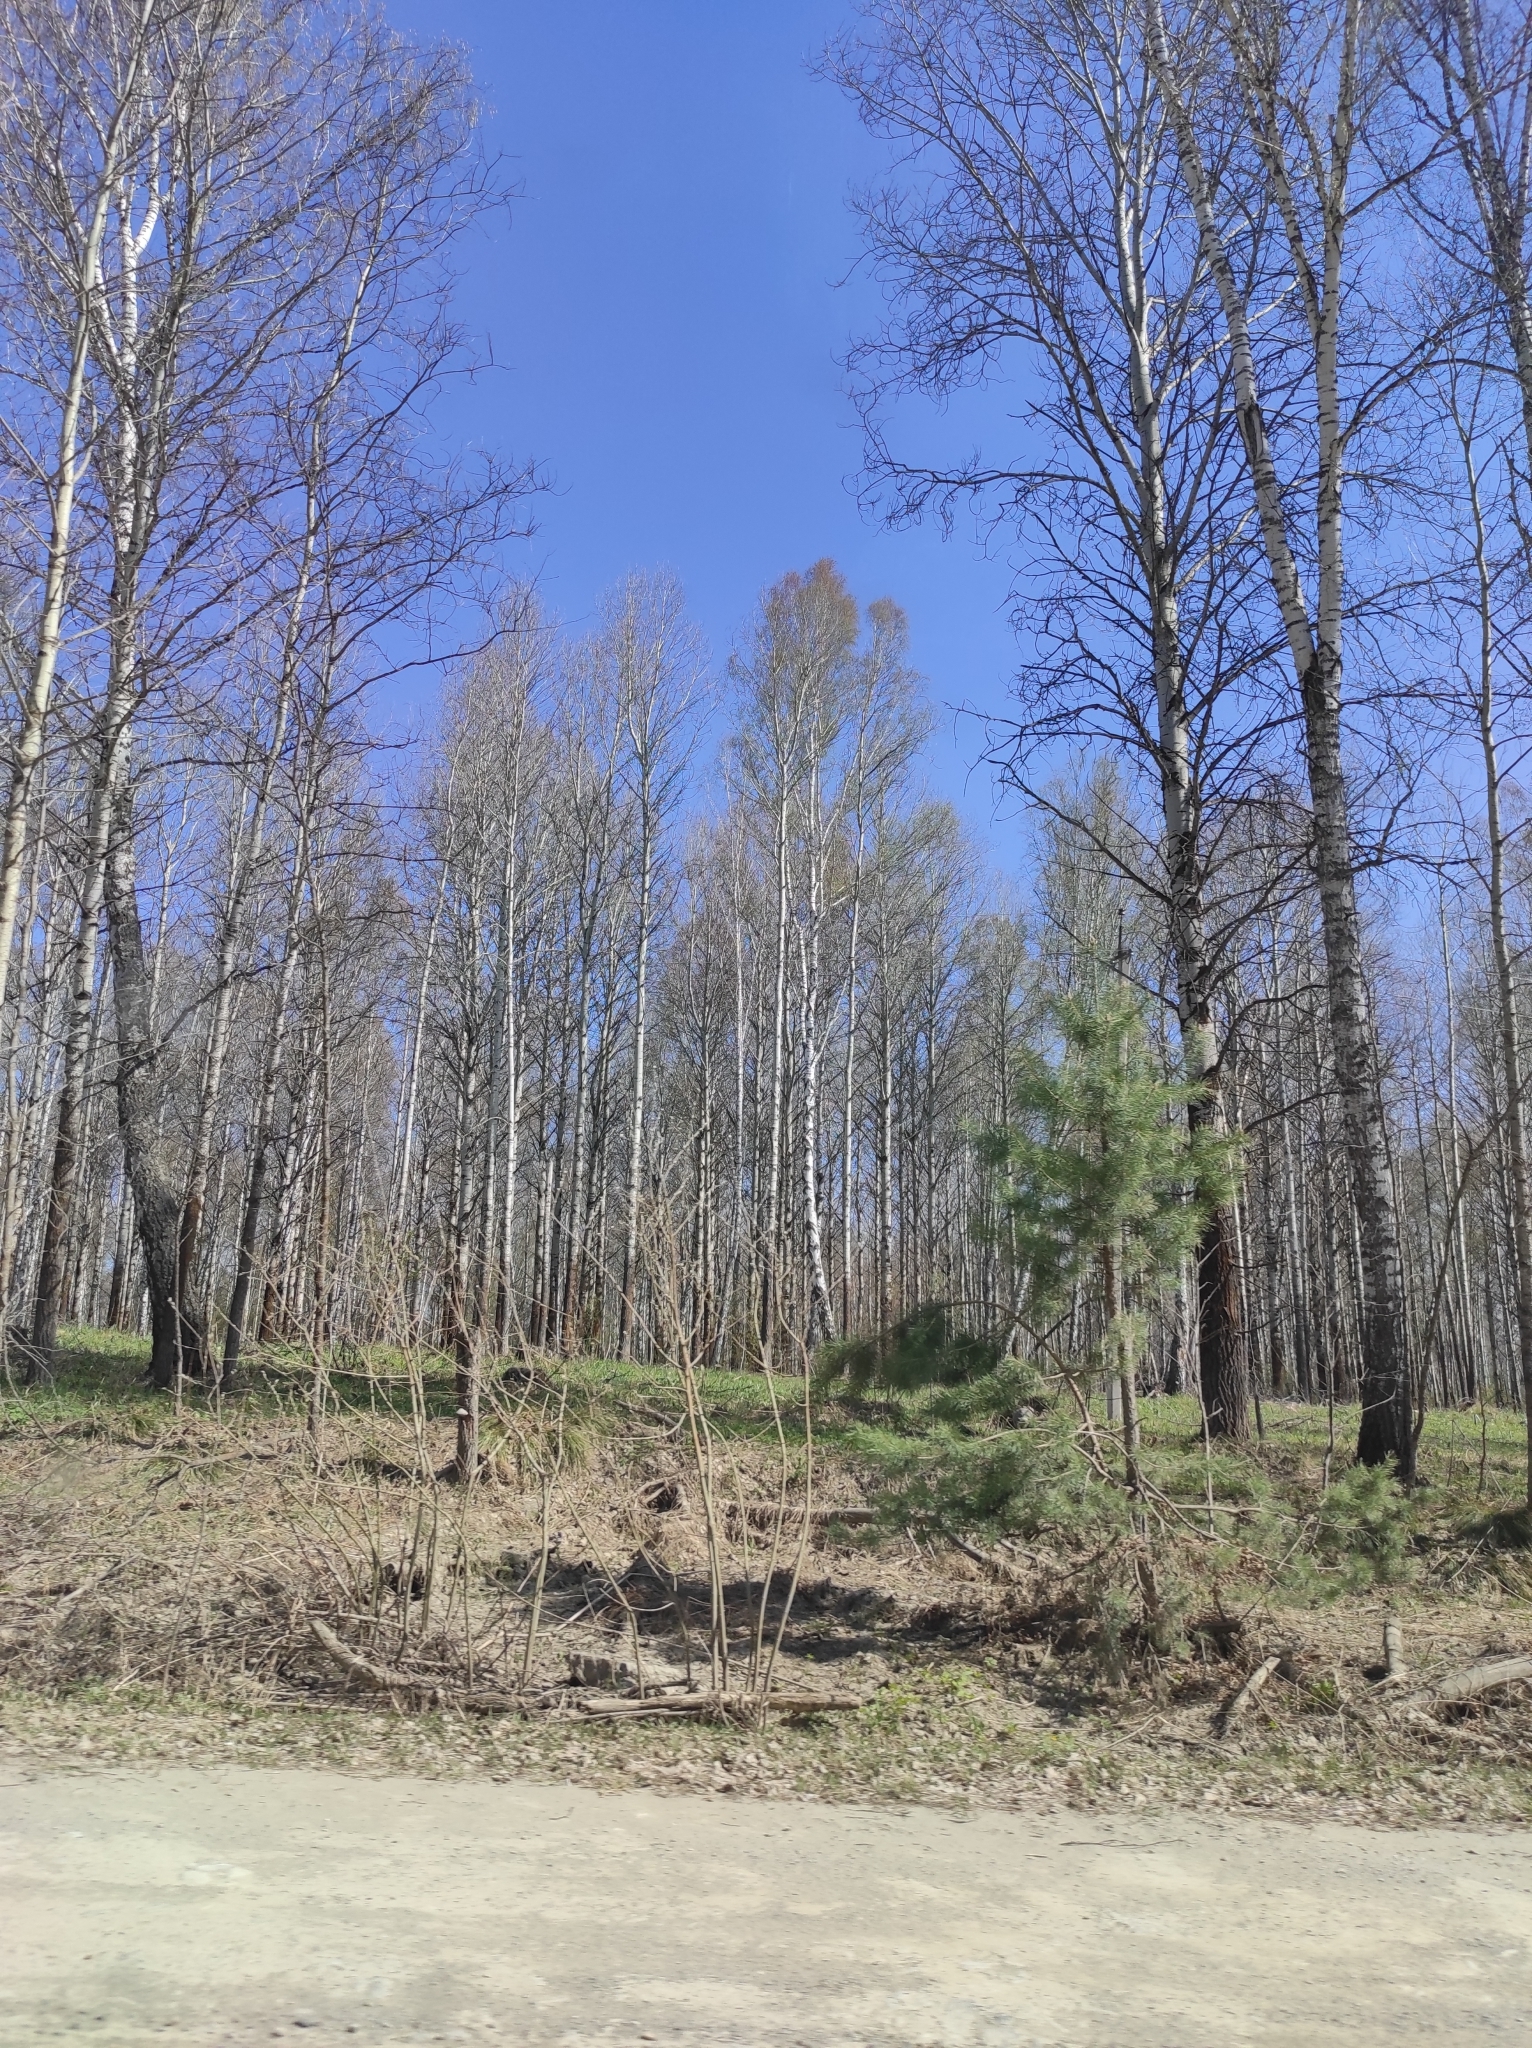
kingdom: Plantae
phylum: Tracheophyta
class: Pinopsida
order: Pinales
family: Pinaceae
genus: Pinus
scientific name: Pinus sylvestris
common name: Scots pine
